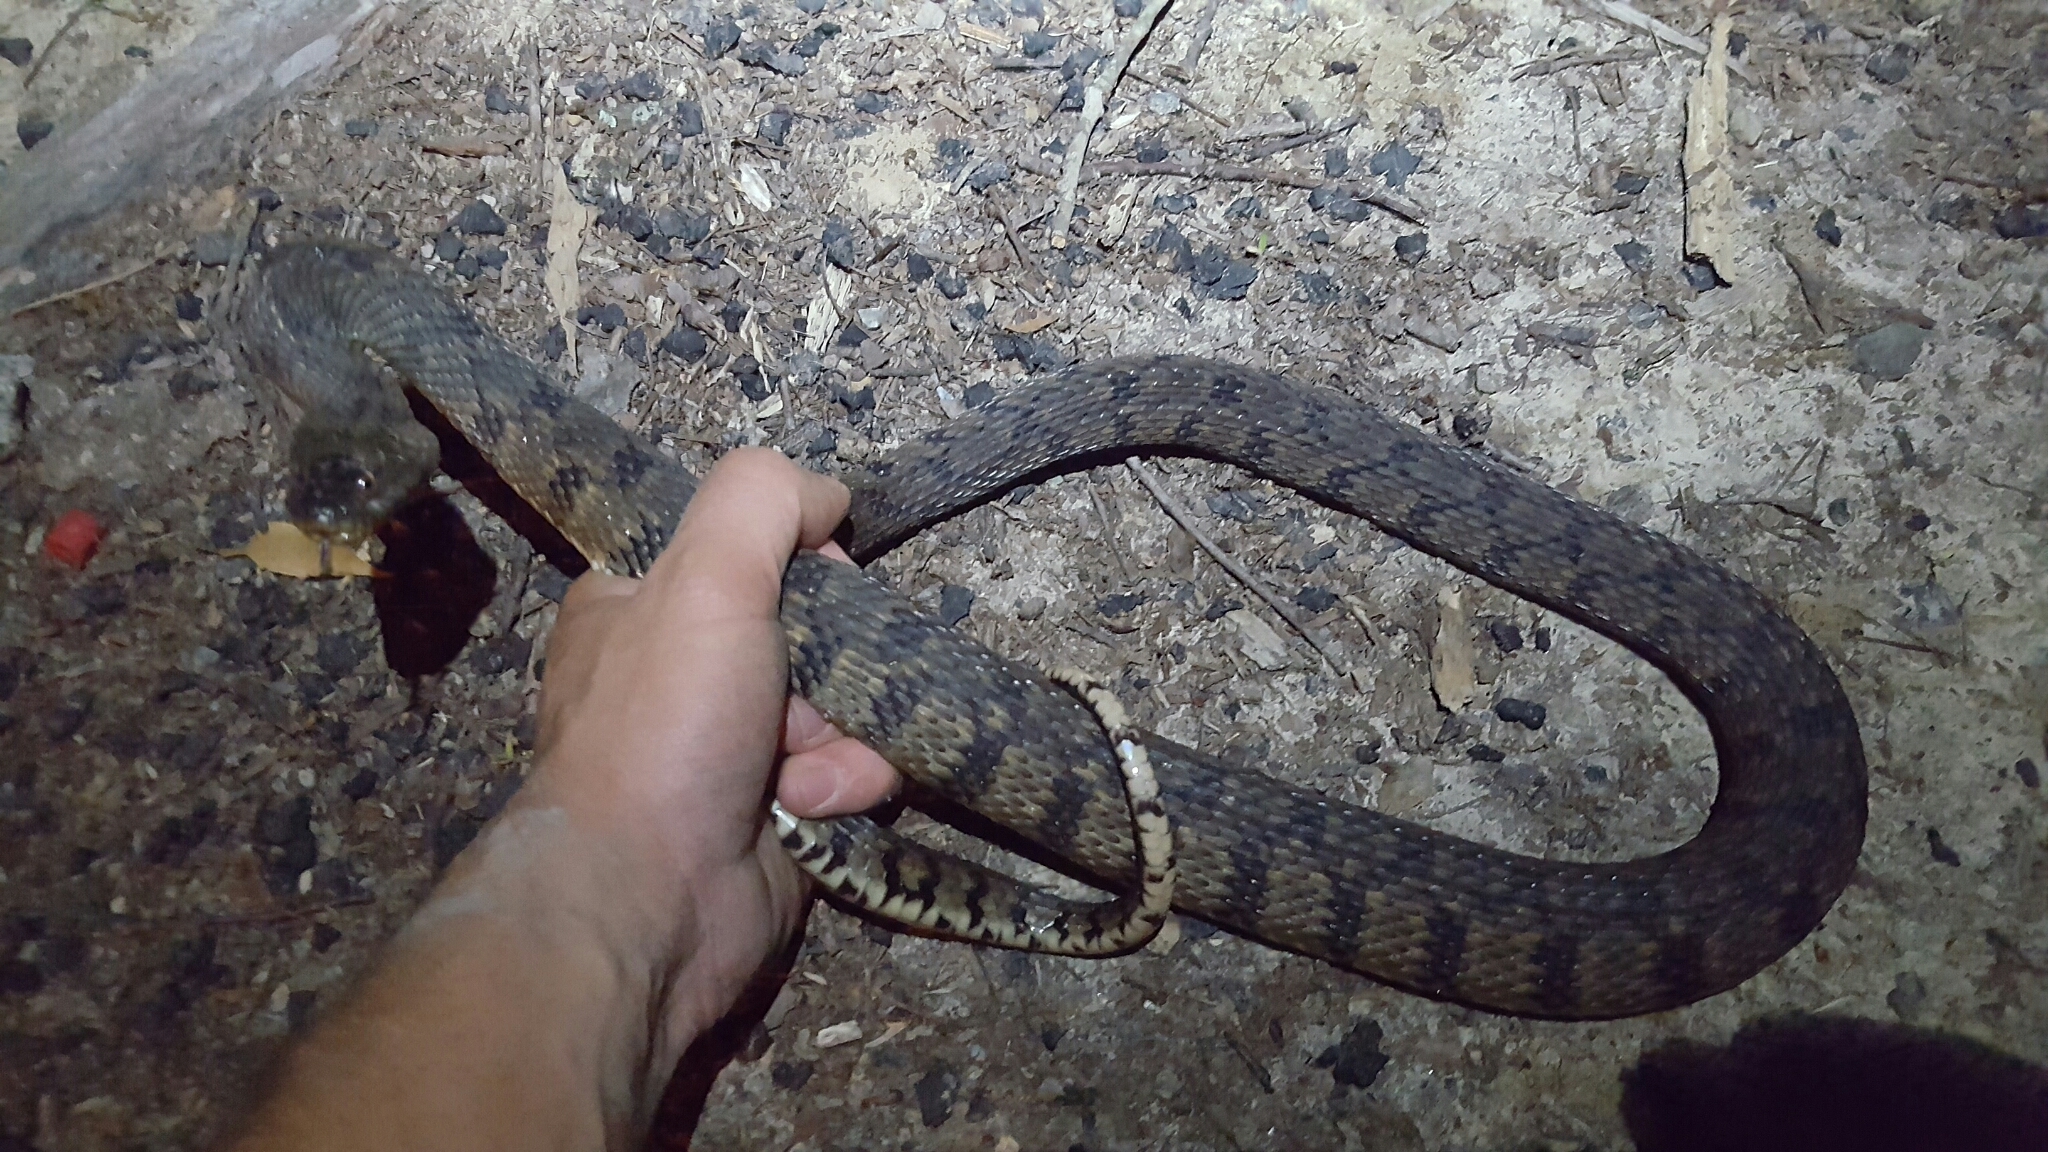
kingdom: Animalia
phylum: Chordata
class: Squamata
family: Colubridae
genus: Nerodia
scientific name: Nerodia rhombifer
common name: Diamondback water snake
